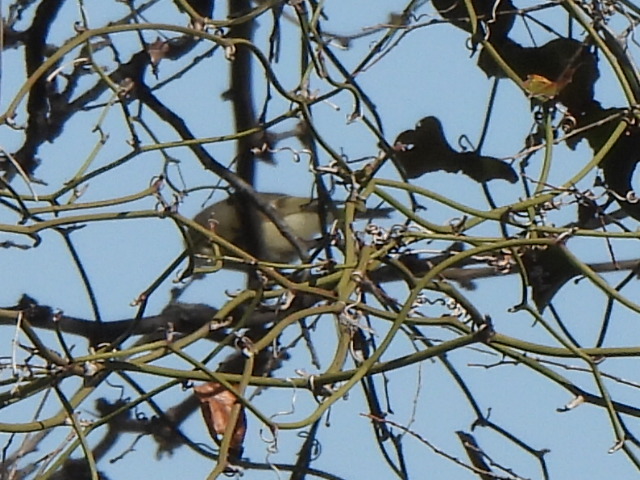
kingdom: Animalia
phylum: Chordata
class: Aves
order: Passeriformes
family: Regulidae
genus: Regulus
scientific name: Regulus calendula
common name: Ruby-crowned kinglet
